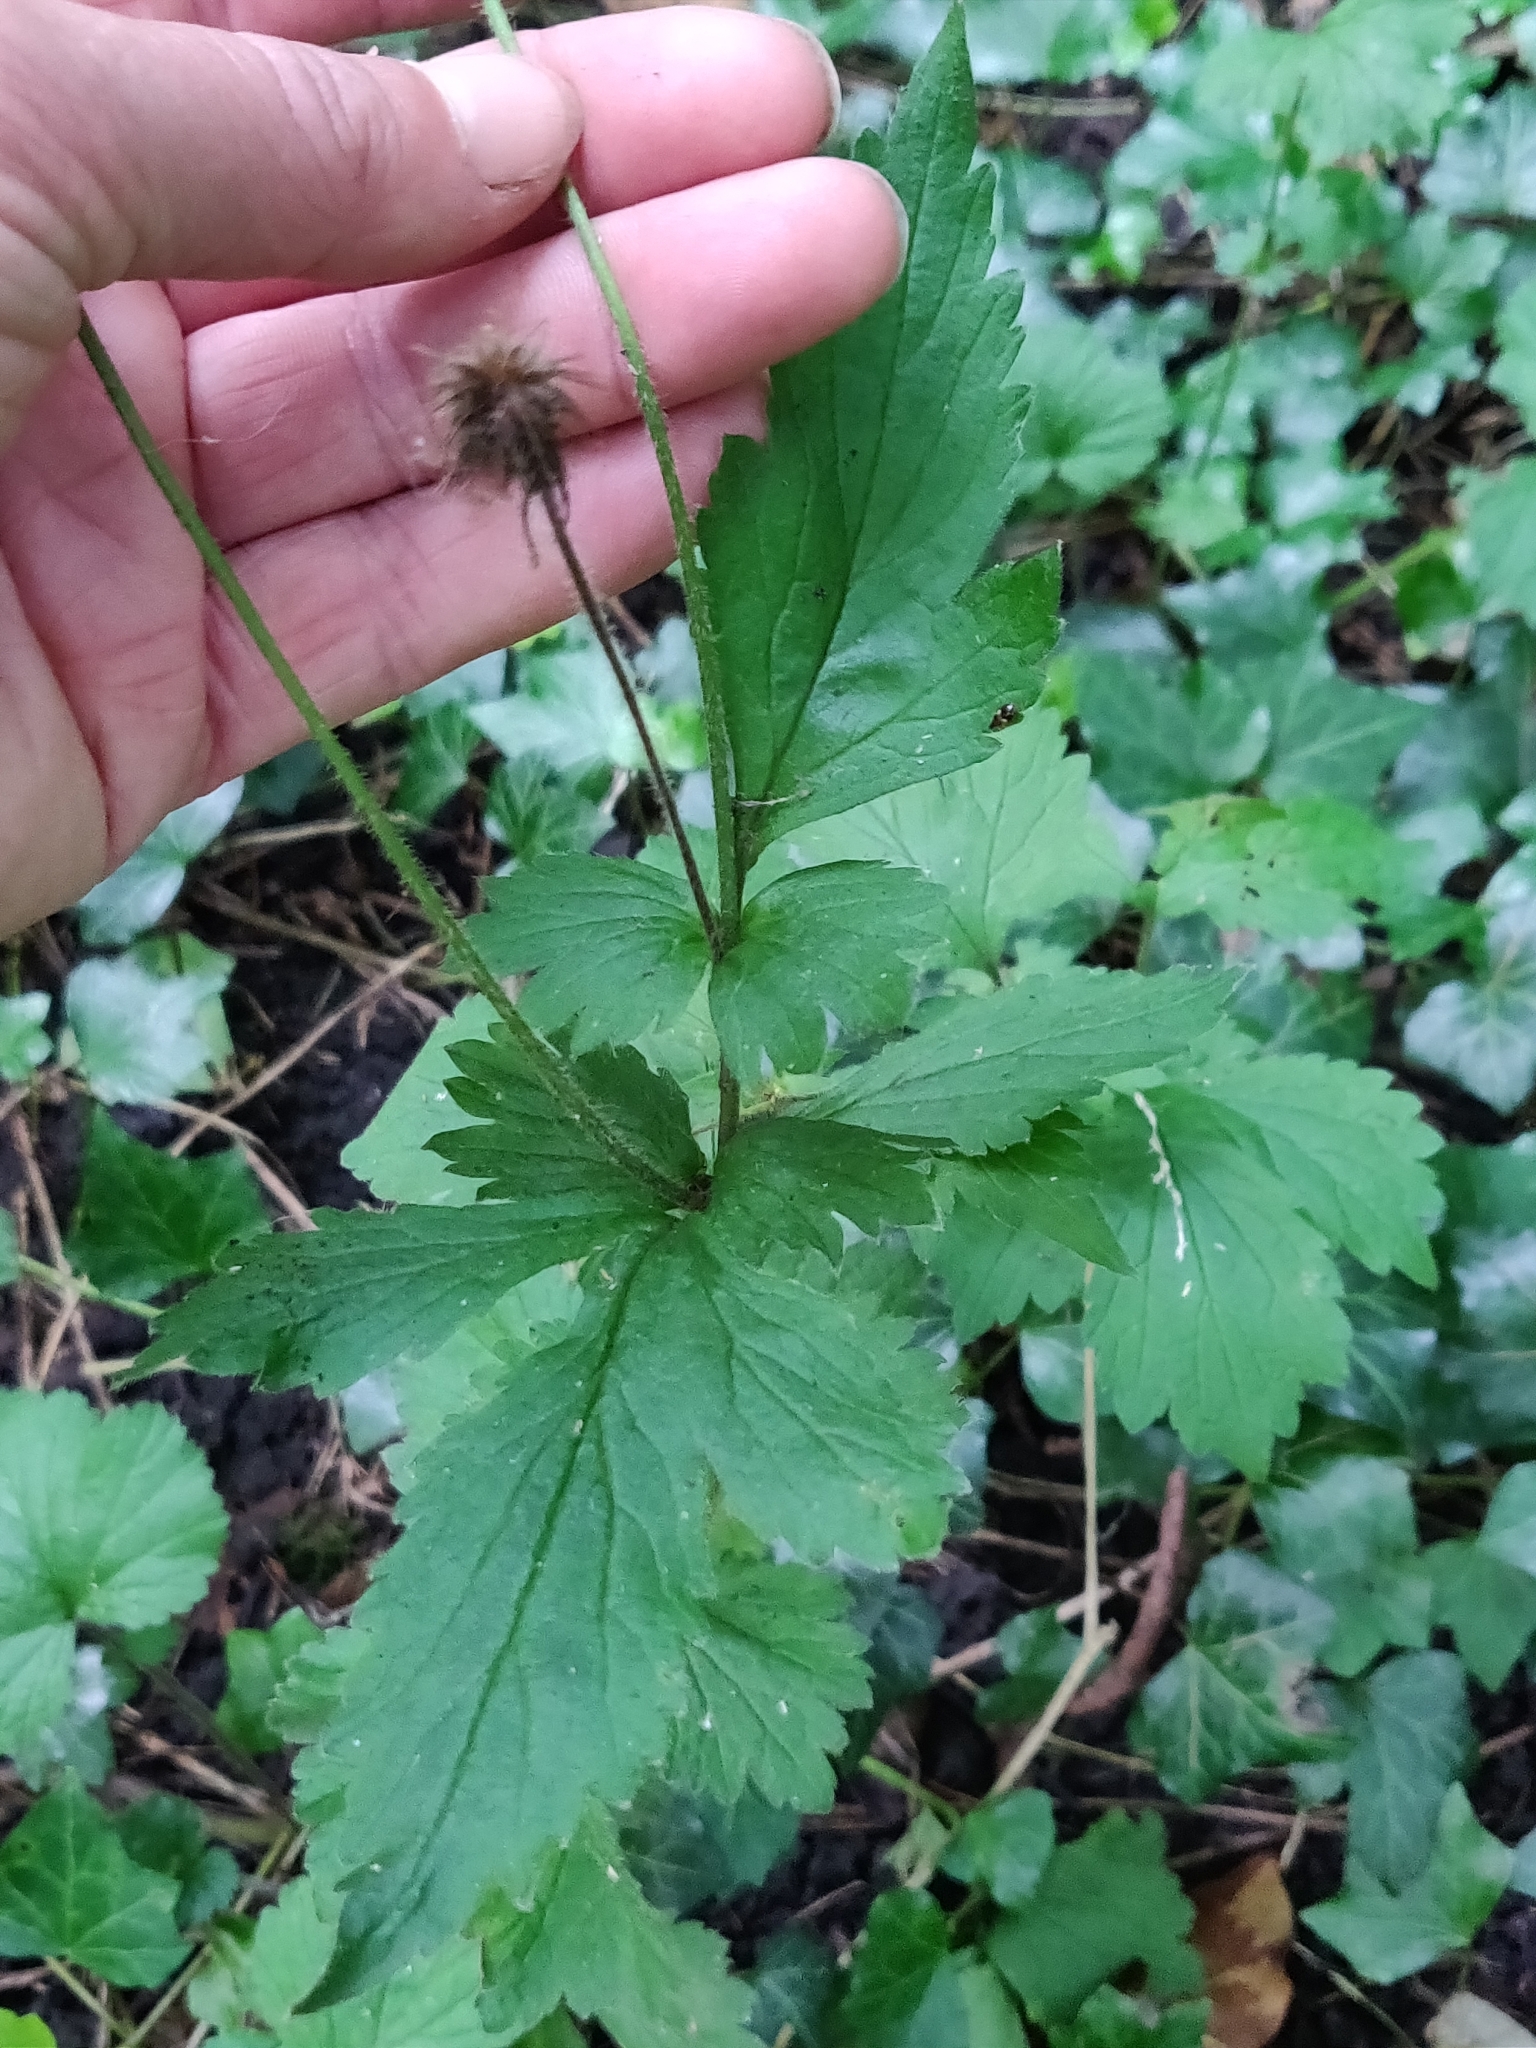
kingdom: Plantae
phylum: Tracheophyta
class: Magnoliopsida
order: Rosales
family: Rosaceae
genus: Geum
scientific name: Geum urbanum
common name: Wood avens
